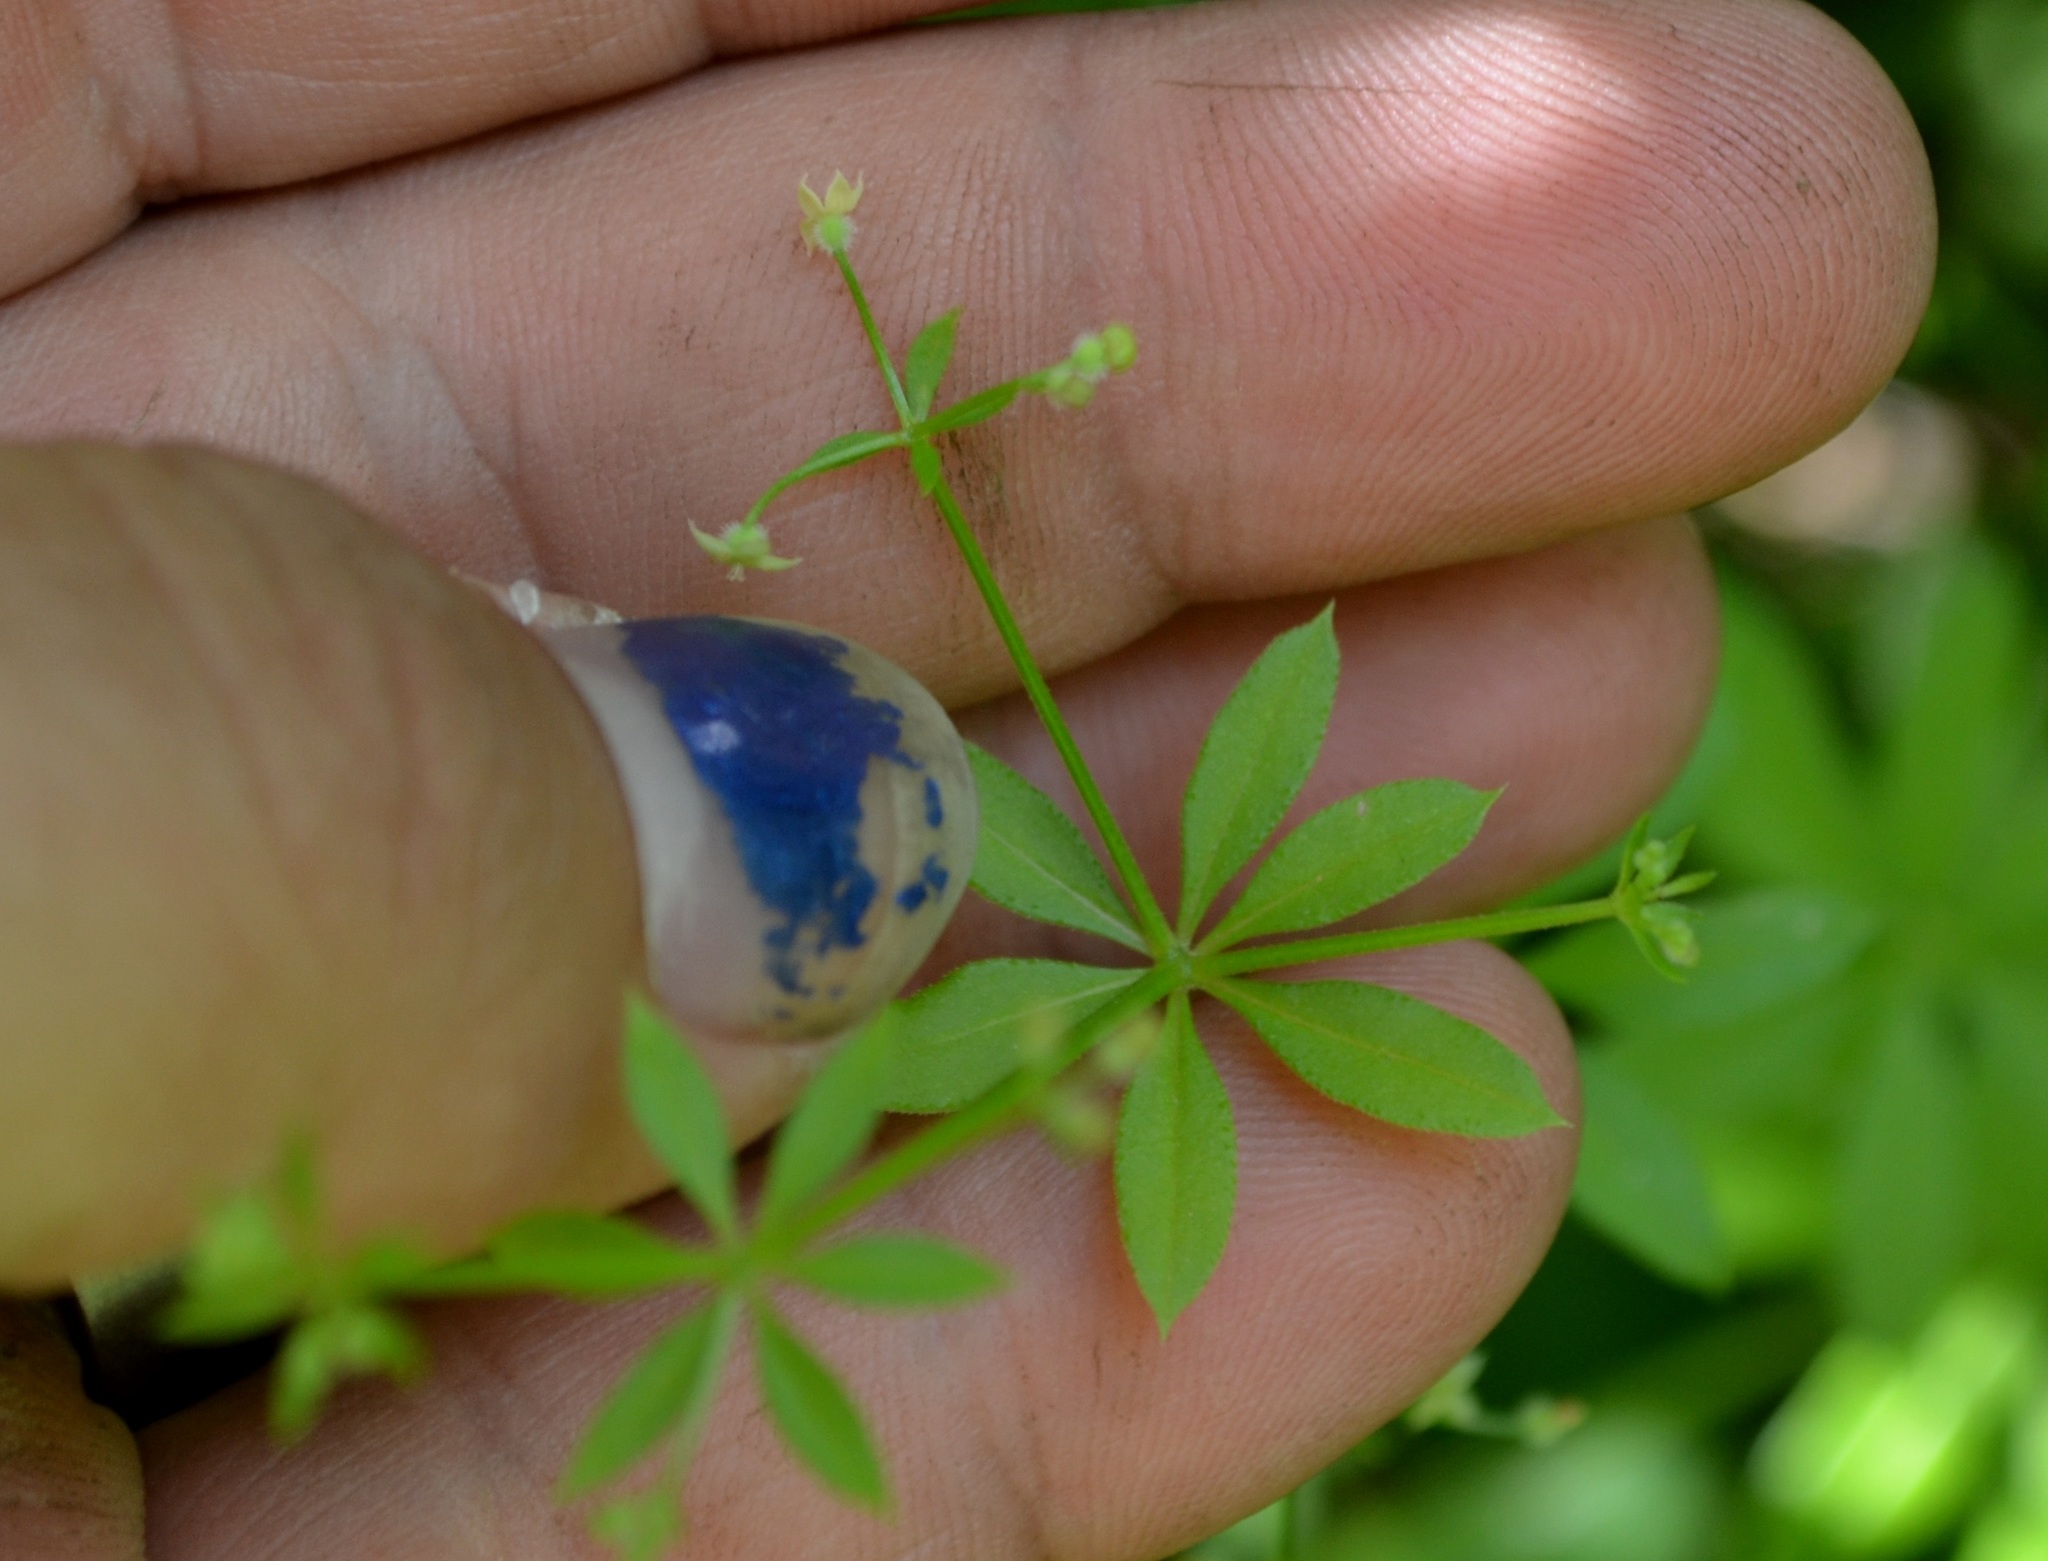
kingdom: Plantae
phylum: Tracheophyta
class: Magnoliopsida
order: Gentianales
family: Rubiaceae
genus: Galium
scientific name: Galium triflorum
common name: Fragrant bedstraw
